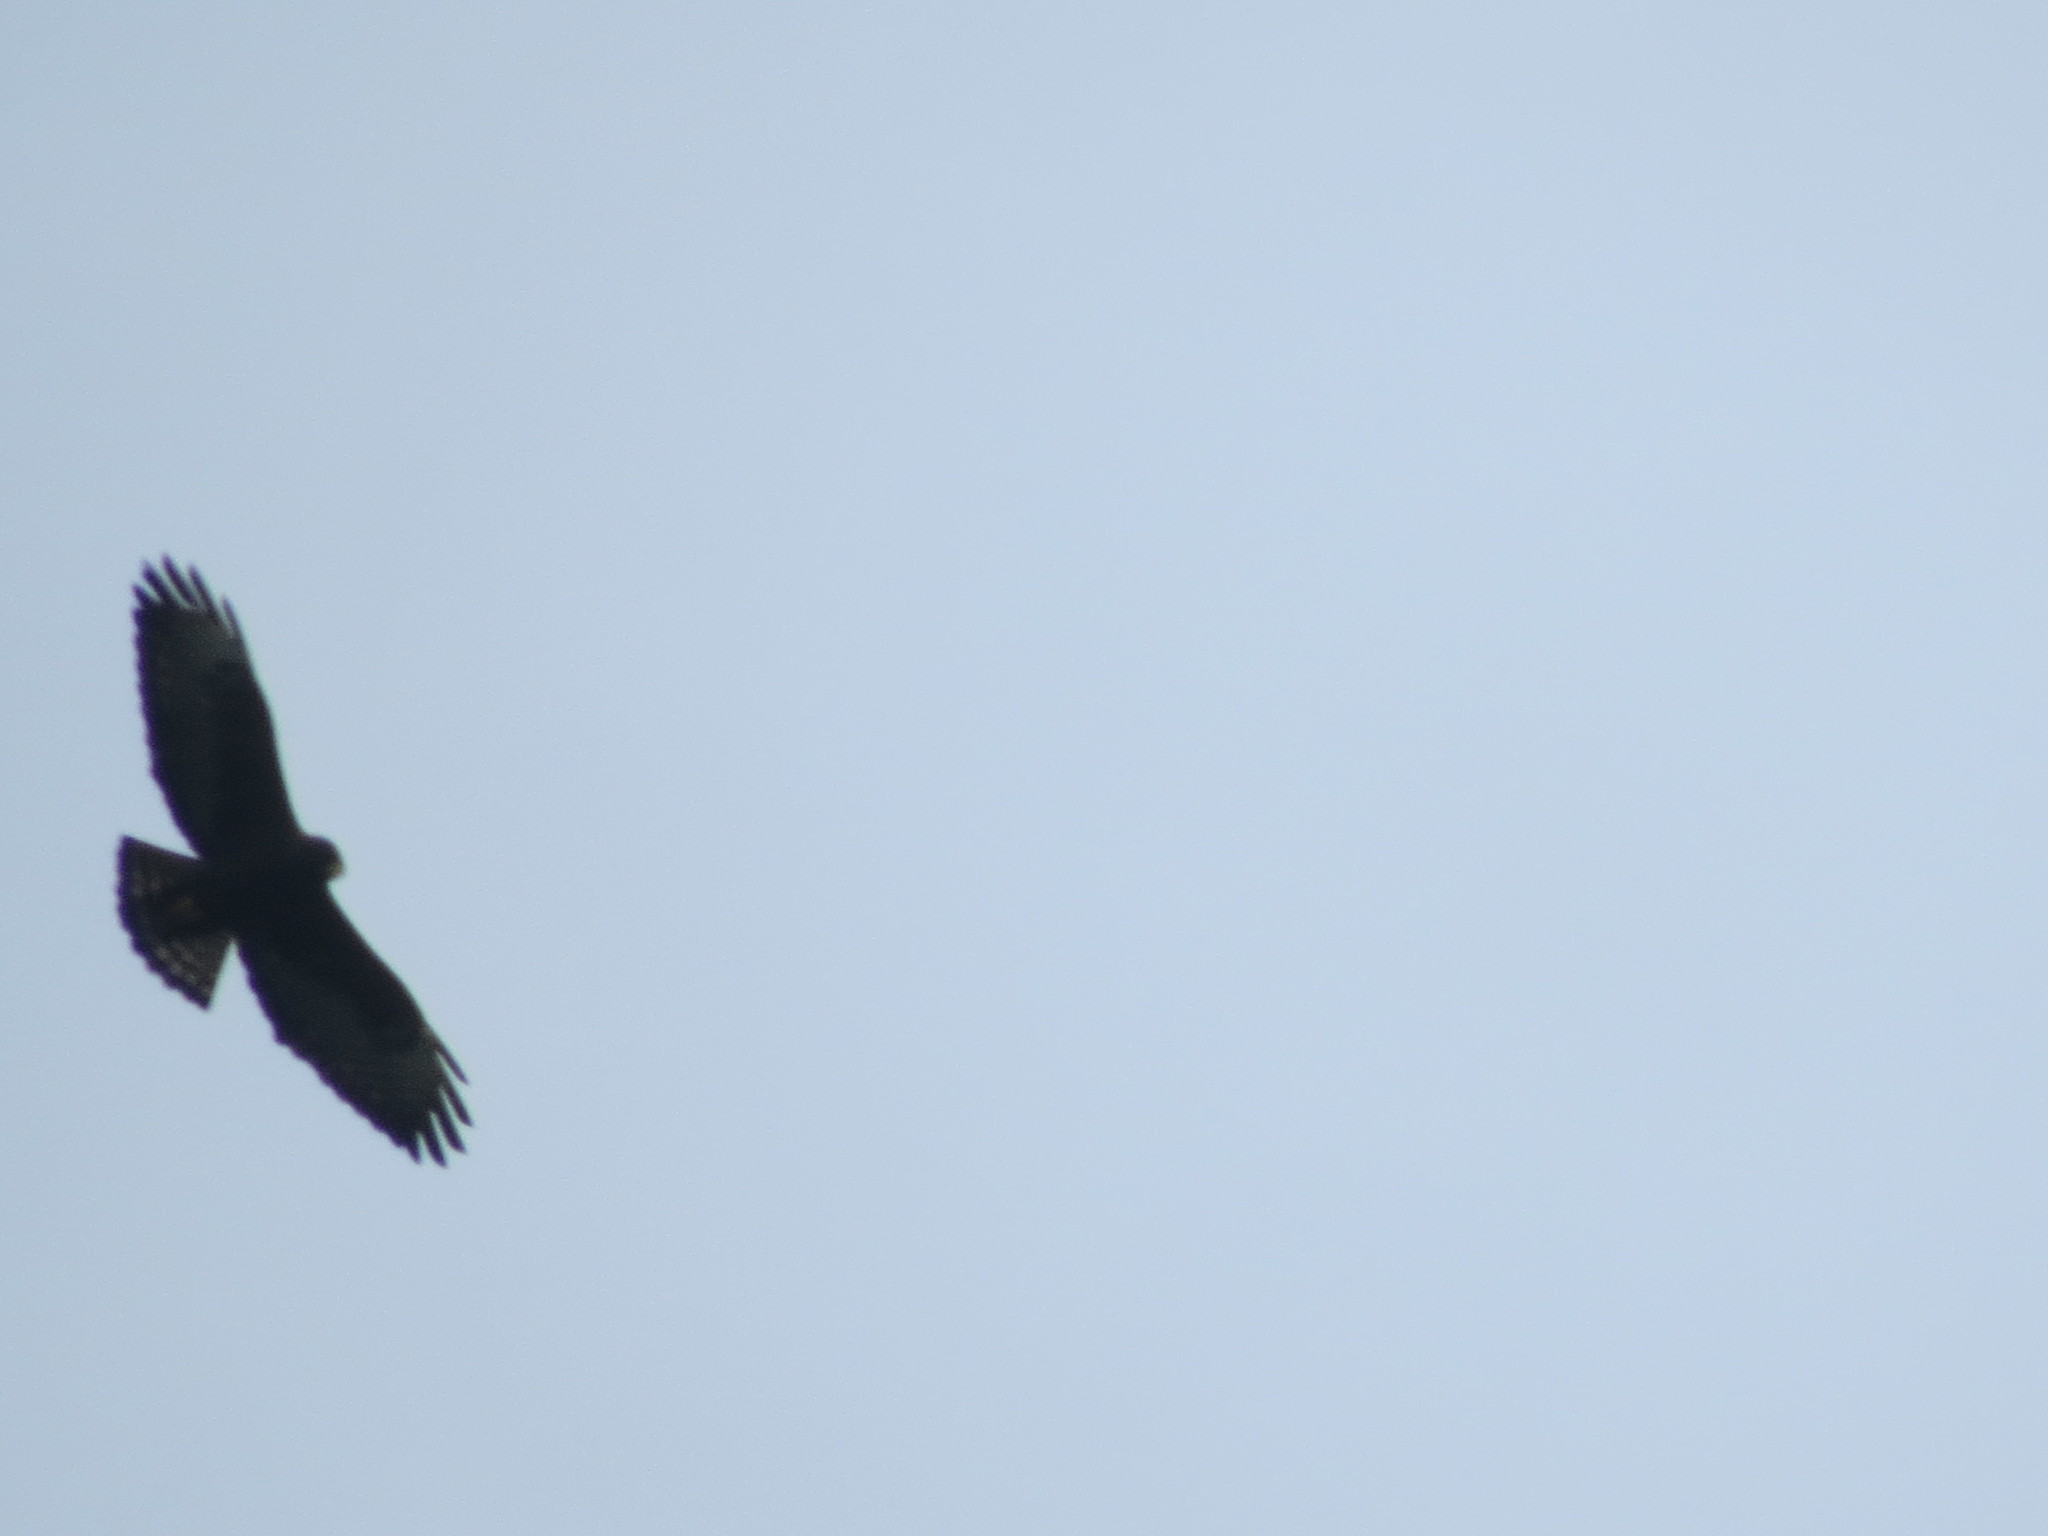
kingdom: Animalia
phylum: Chordata
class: Aves
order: Accipitriformes
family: Accipitridae
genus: Buteo
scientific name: Buteo brachyurus
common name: Short-tailed hawk
